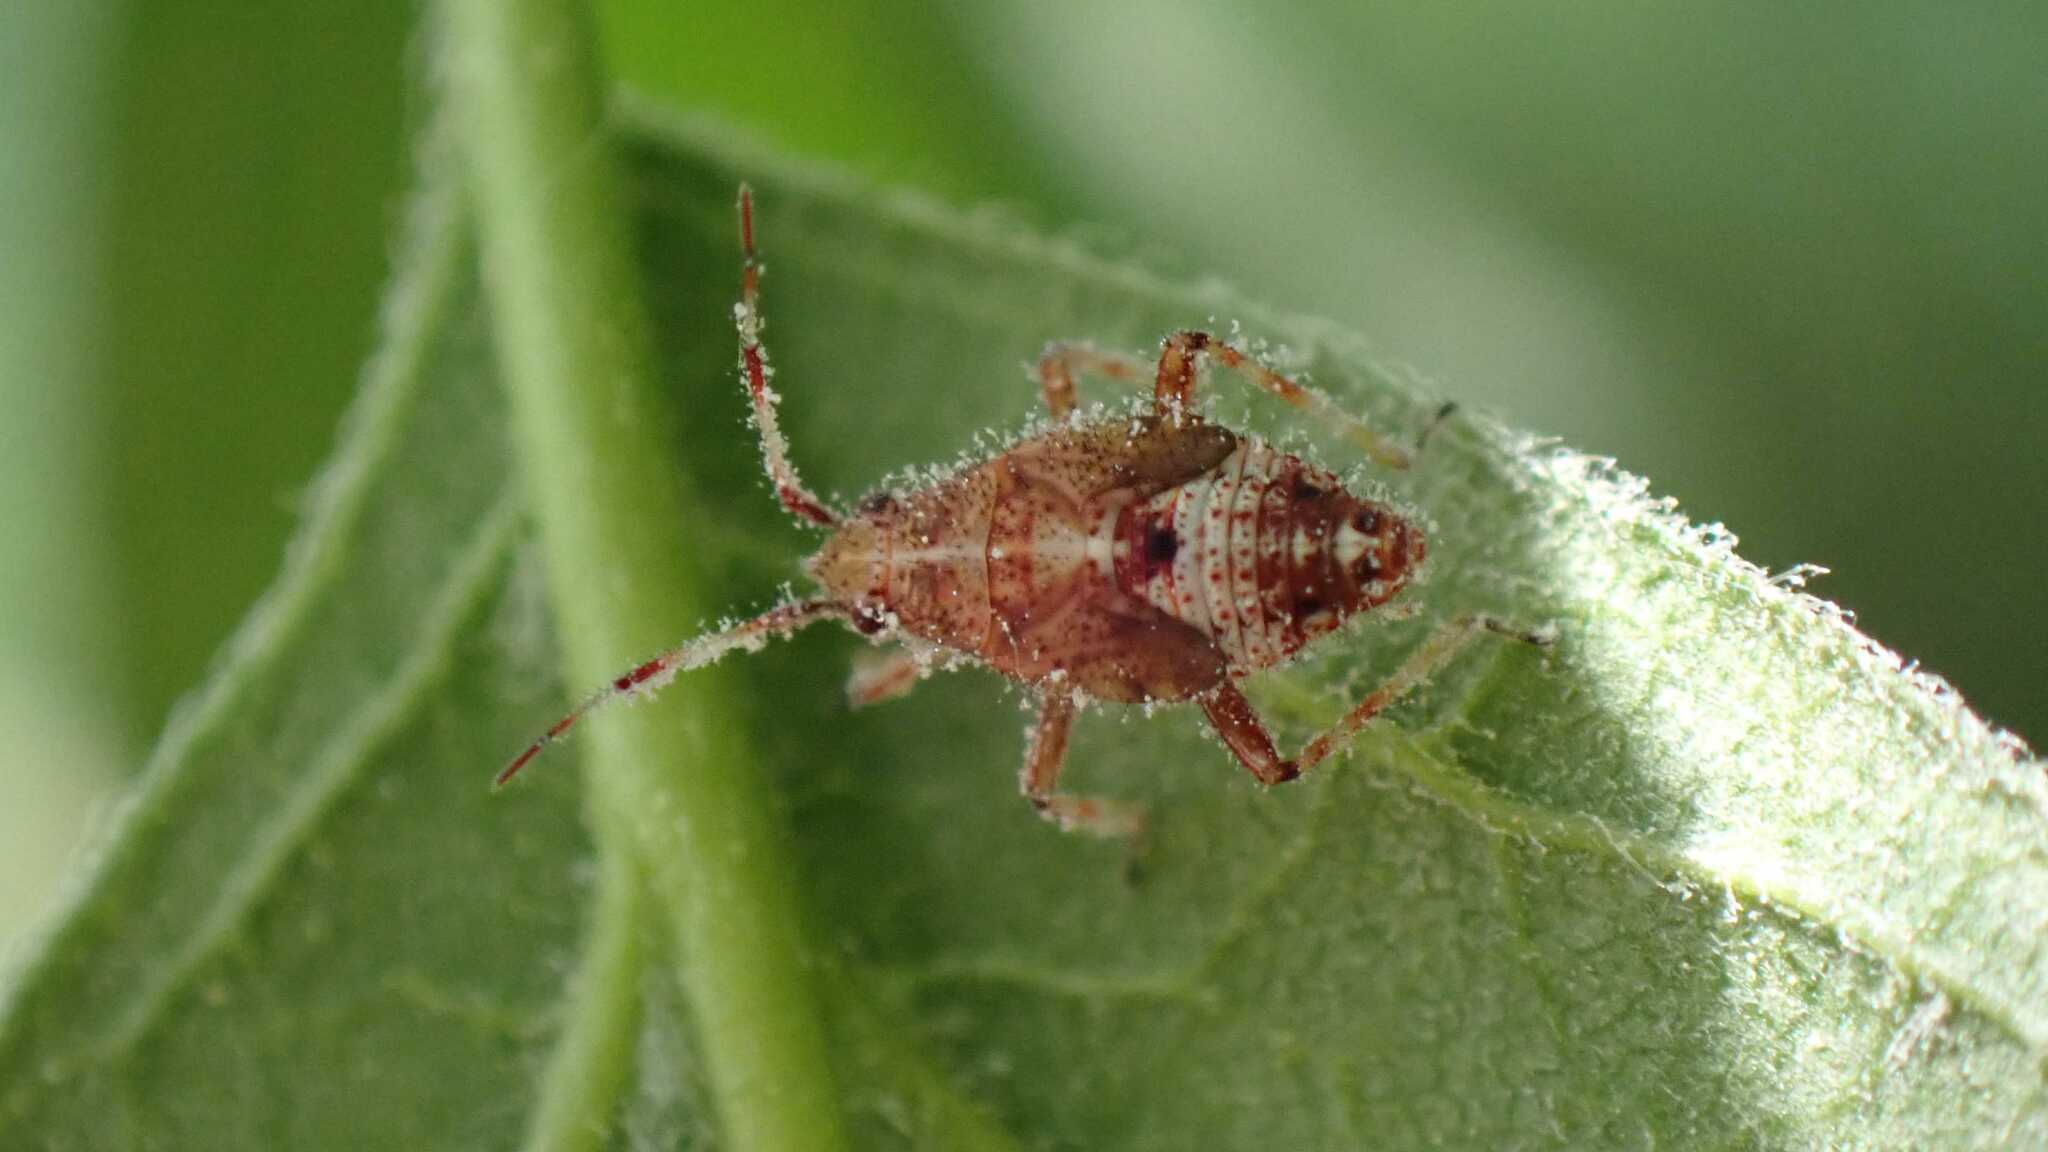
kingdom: Animalia
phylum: Arthropoda
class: Insecta
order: Hemiptera
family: Miridae
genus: Deraeocoris
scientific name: Deraeocoris flavilinea
